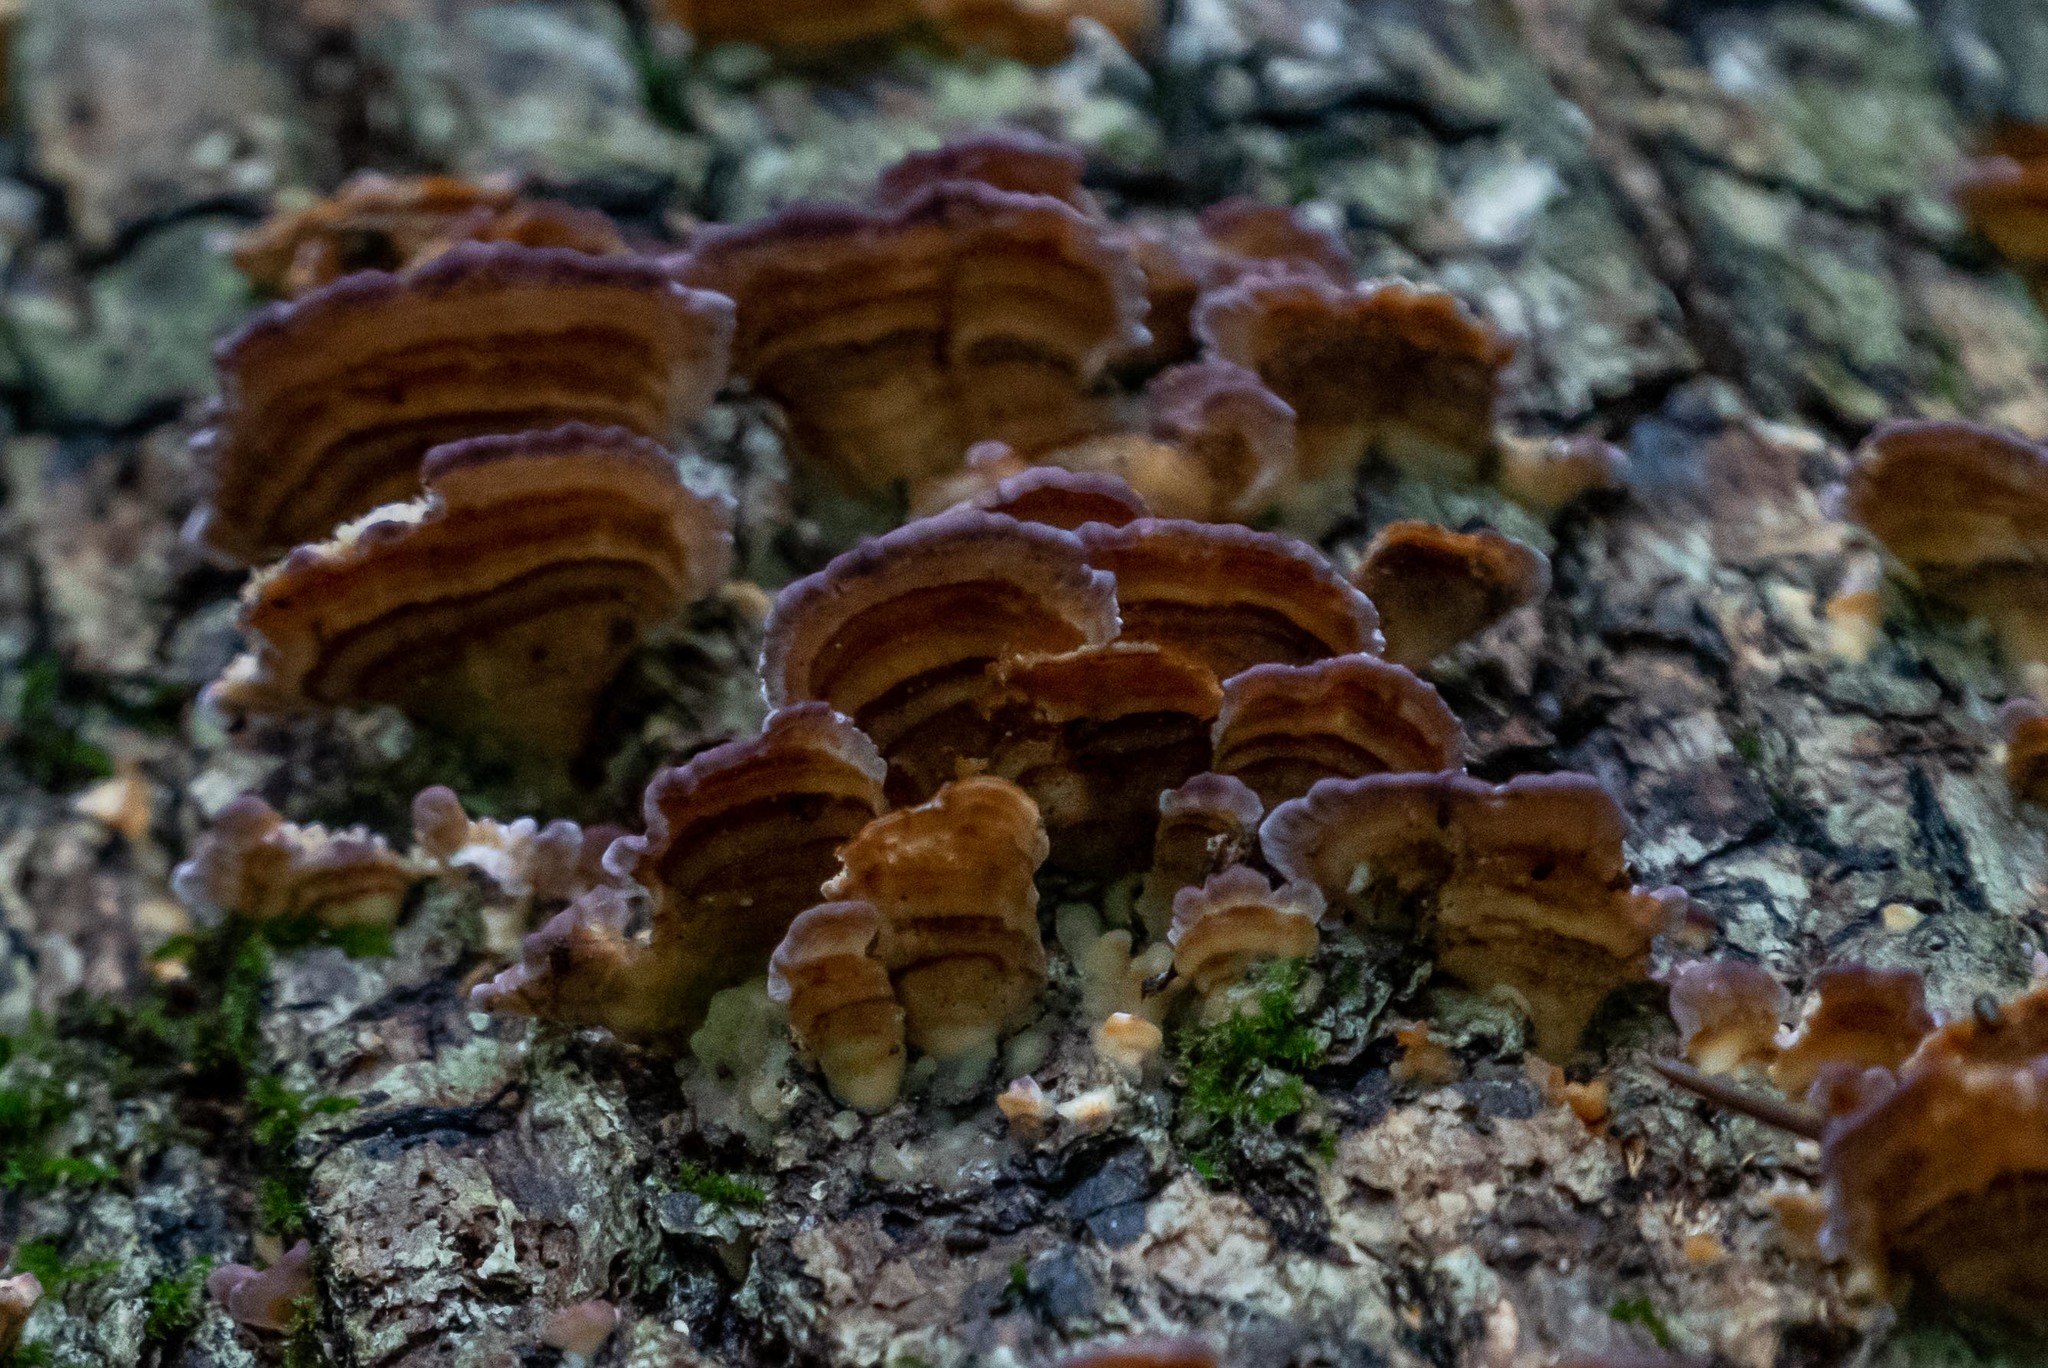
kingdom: Fungi
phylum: Basidiomycota
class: Agaricomycetes
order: Hymenochaetales
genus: Trichaptum
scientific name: Trichaptum biforme
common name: Violet-toothed polypore
